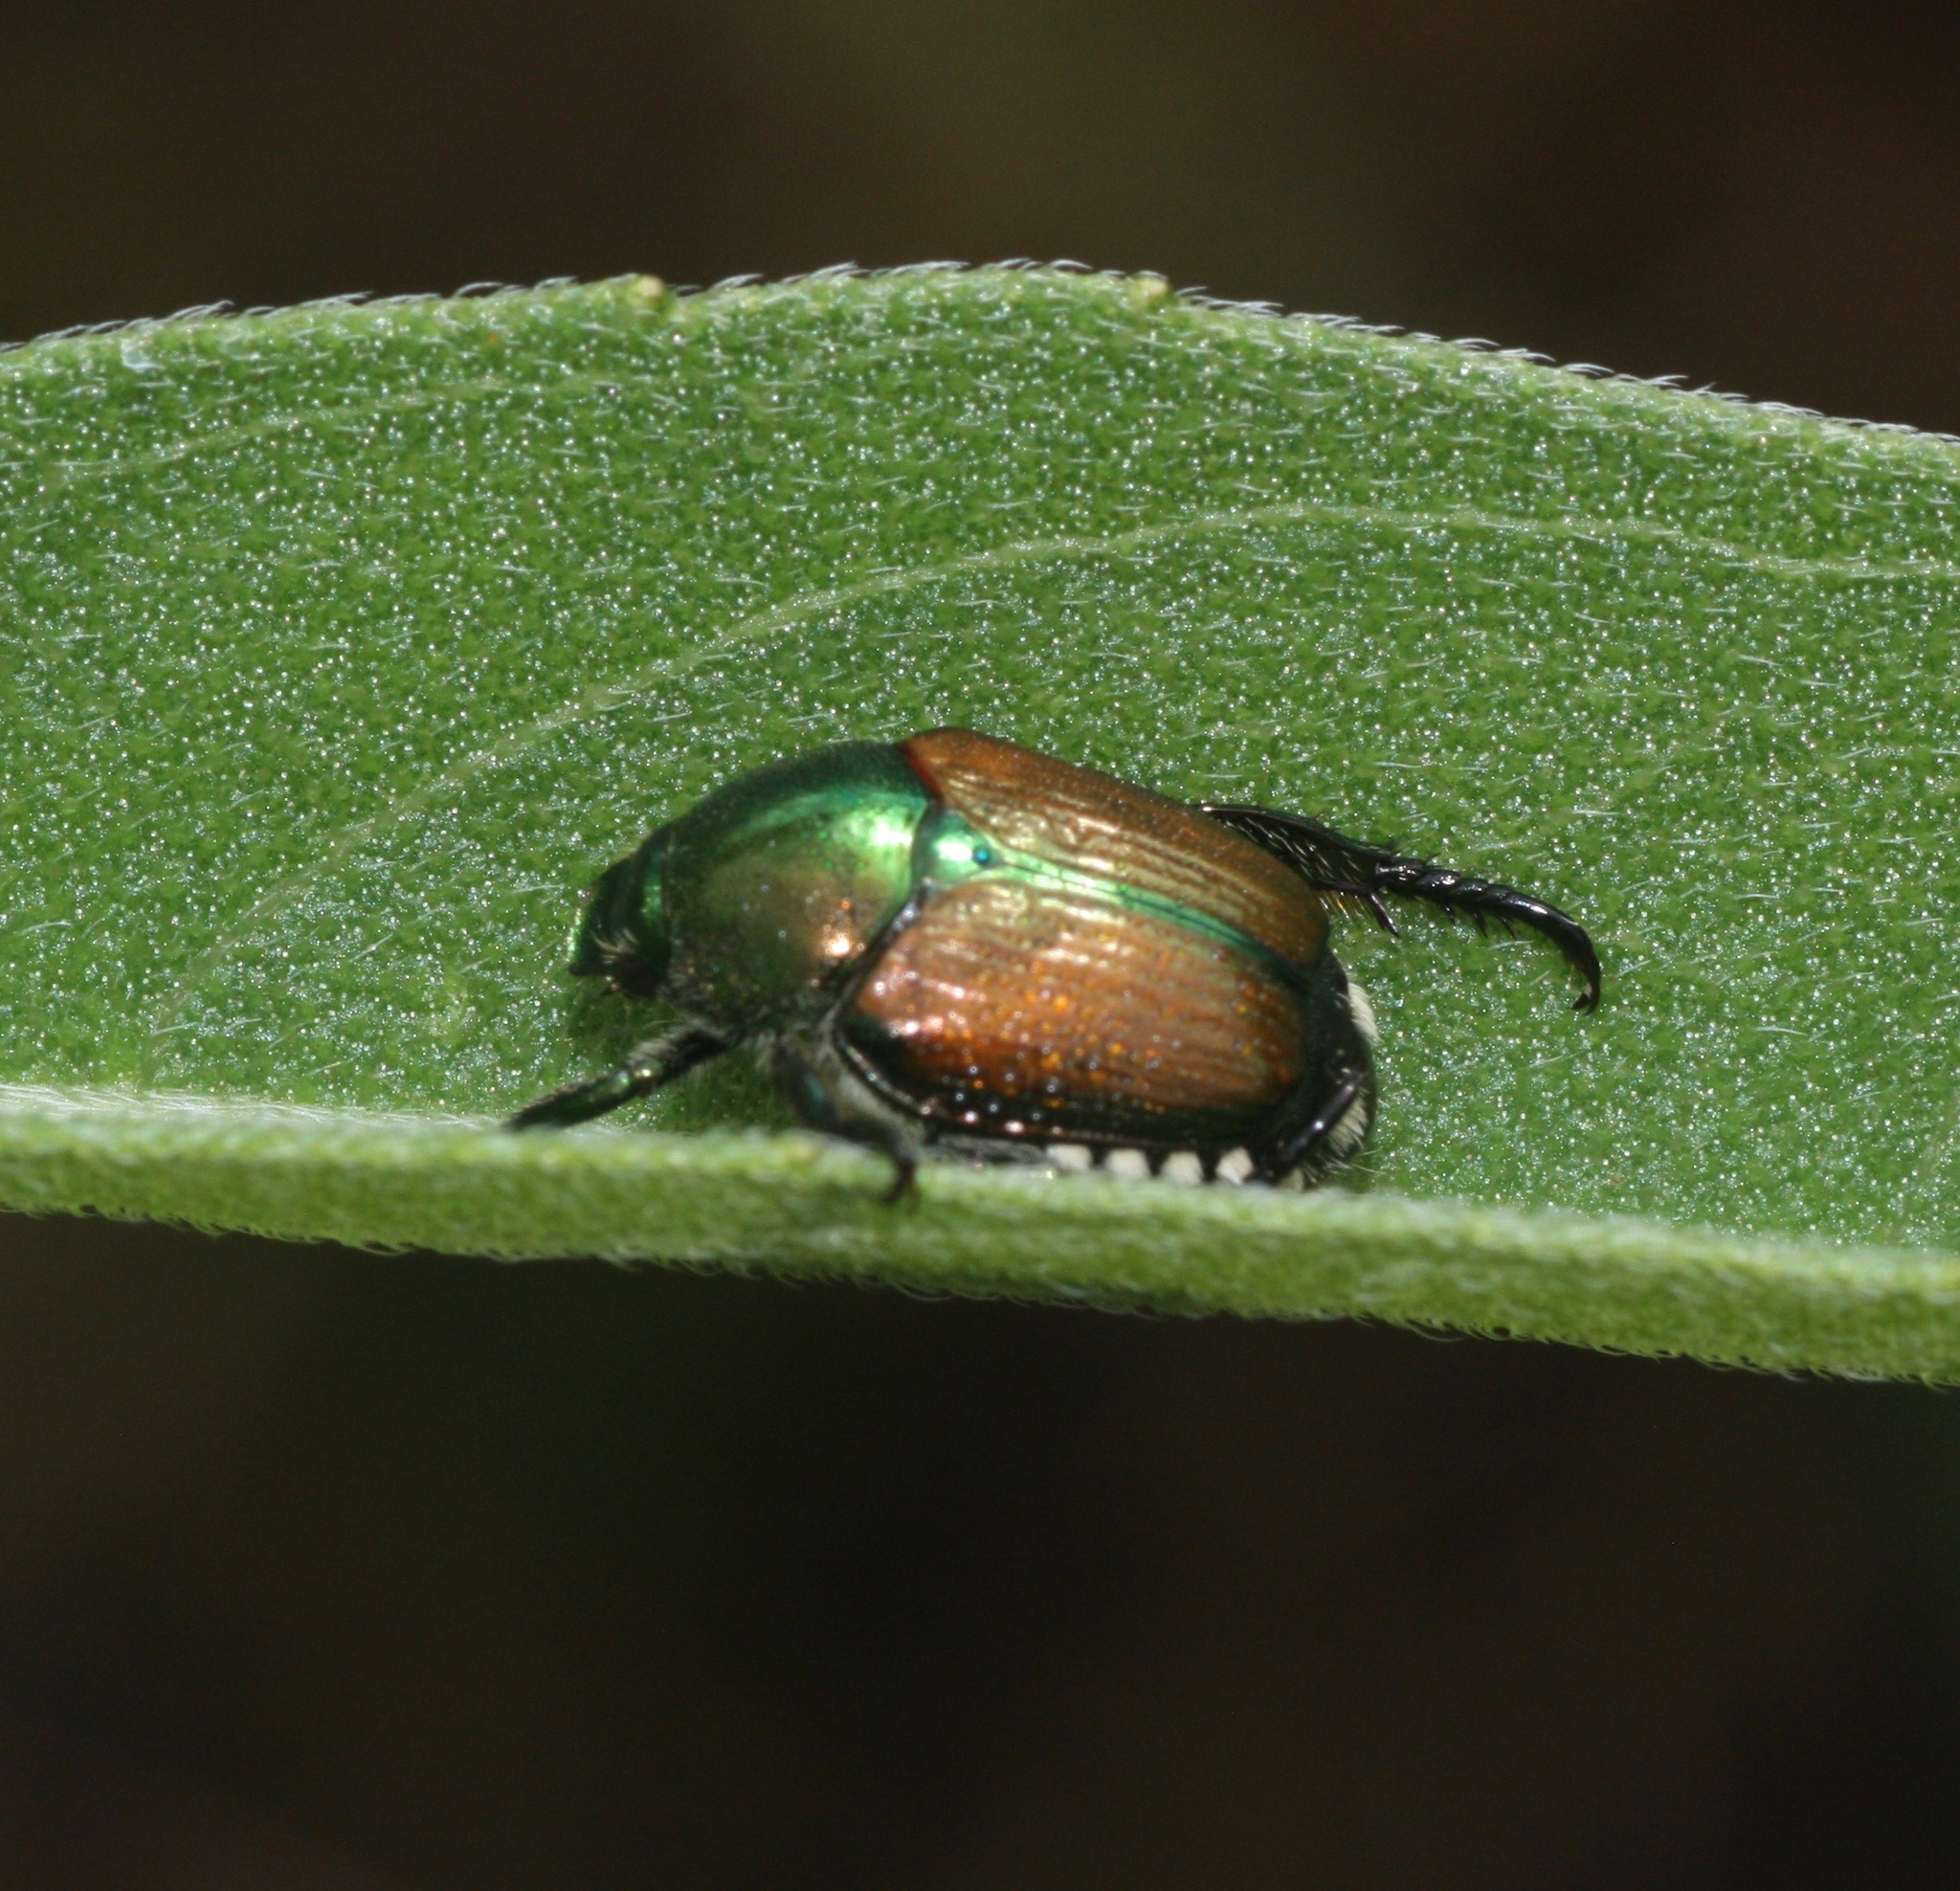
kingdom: Animalia
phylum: Arthropoda
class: Insecta
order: Coleoptera
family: Scarabaeidae
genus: Popillia
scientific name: Popillia japonica
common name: Japanese beetle
